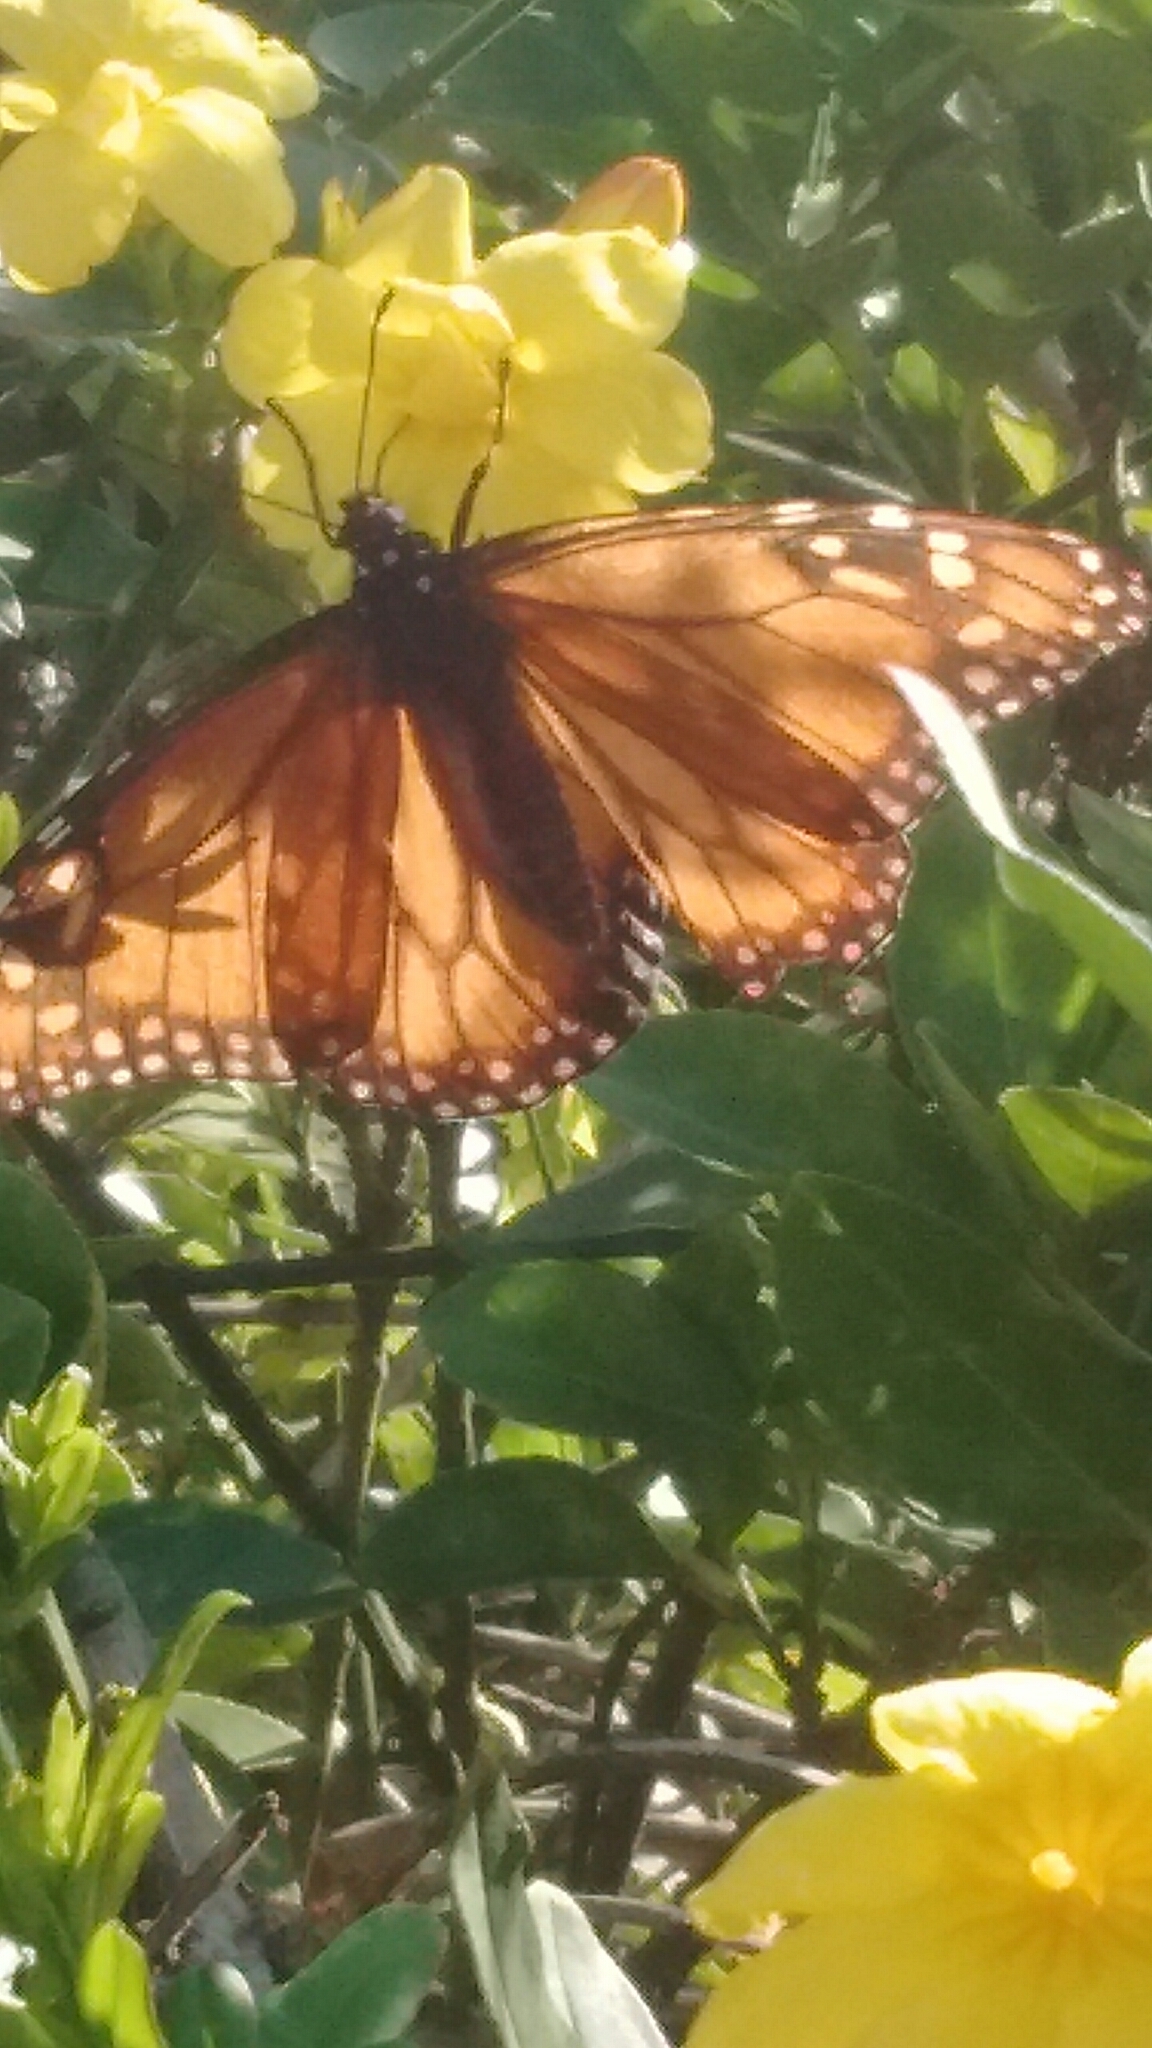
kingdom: Animalia
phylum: Arthropoda
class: Insecta
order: Lepidoptera
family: Nymphalidae
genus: Danaus
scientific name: Danaus erippus
